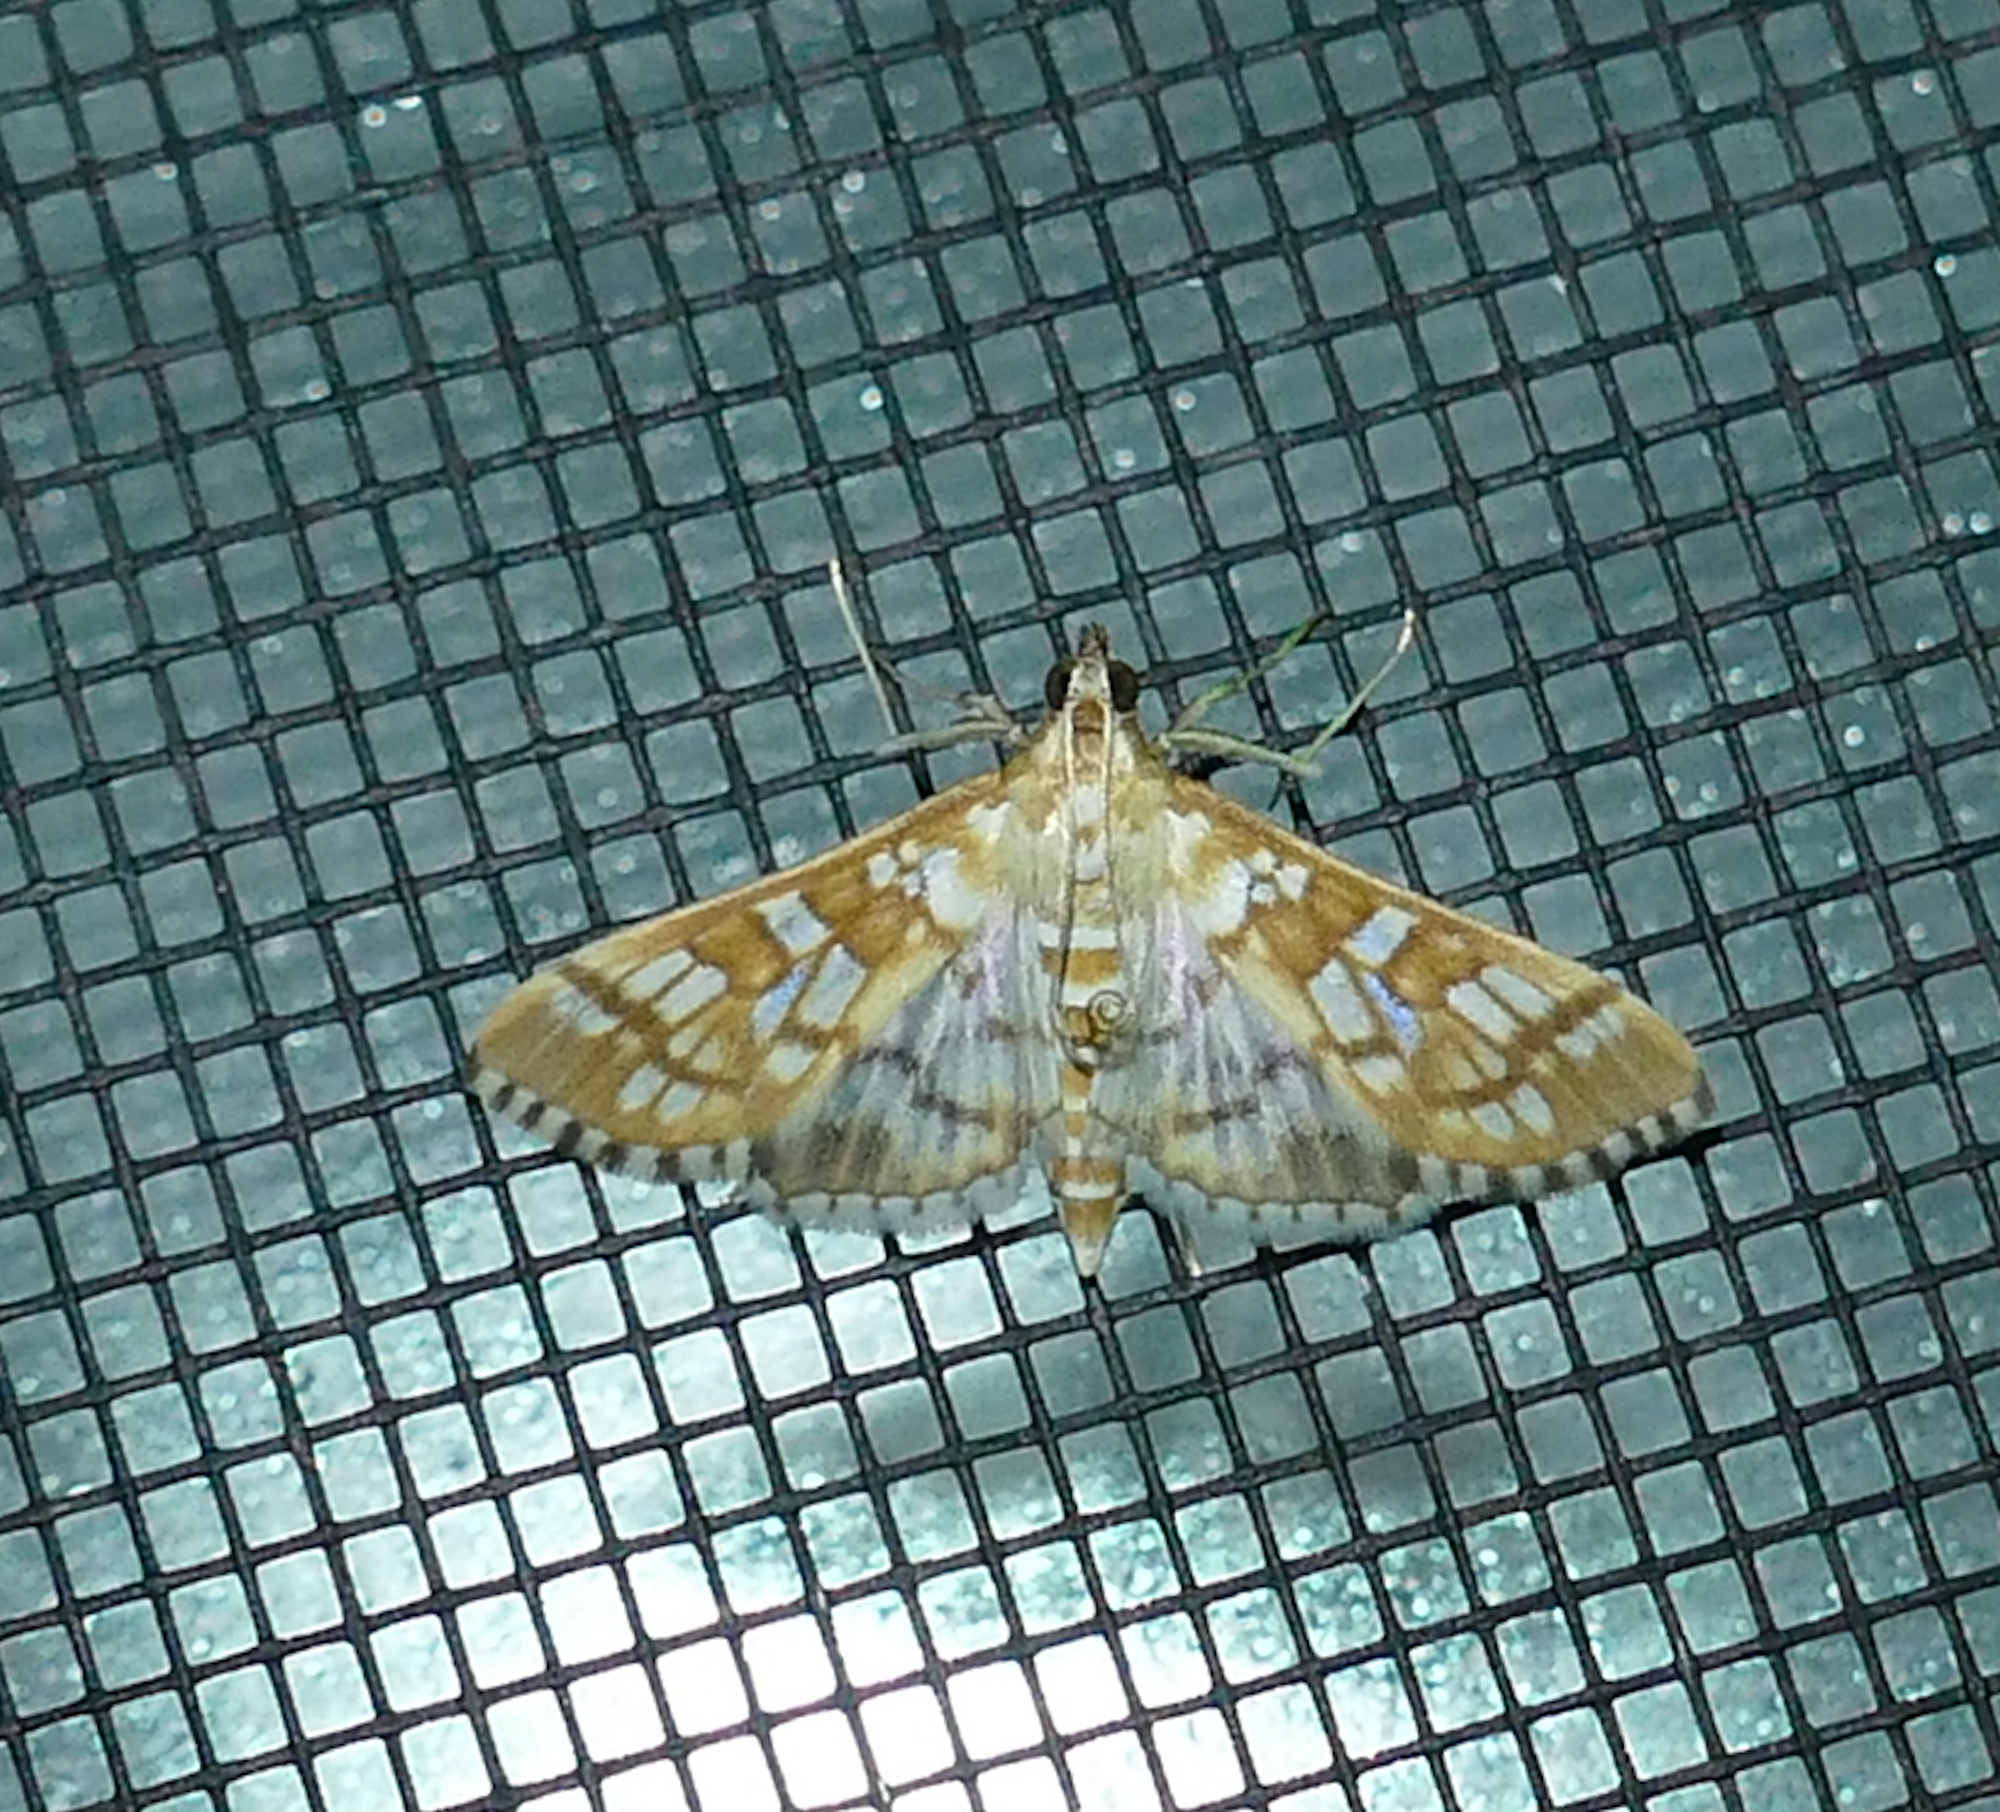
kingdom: Animalia
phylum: Arthropoda
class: Insecta
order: Lepidoptera
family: Crambidae
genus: Epipagis
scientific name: Epipagis fenestralis
